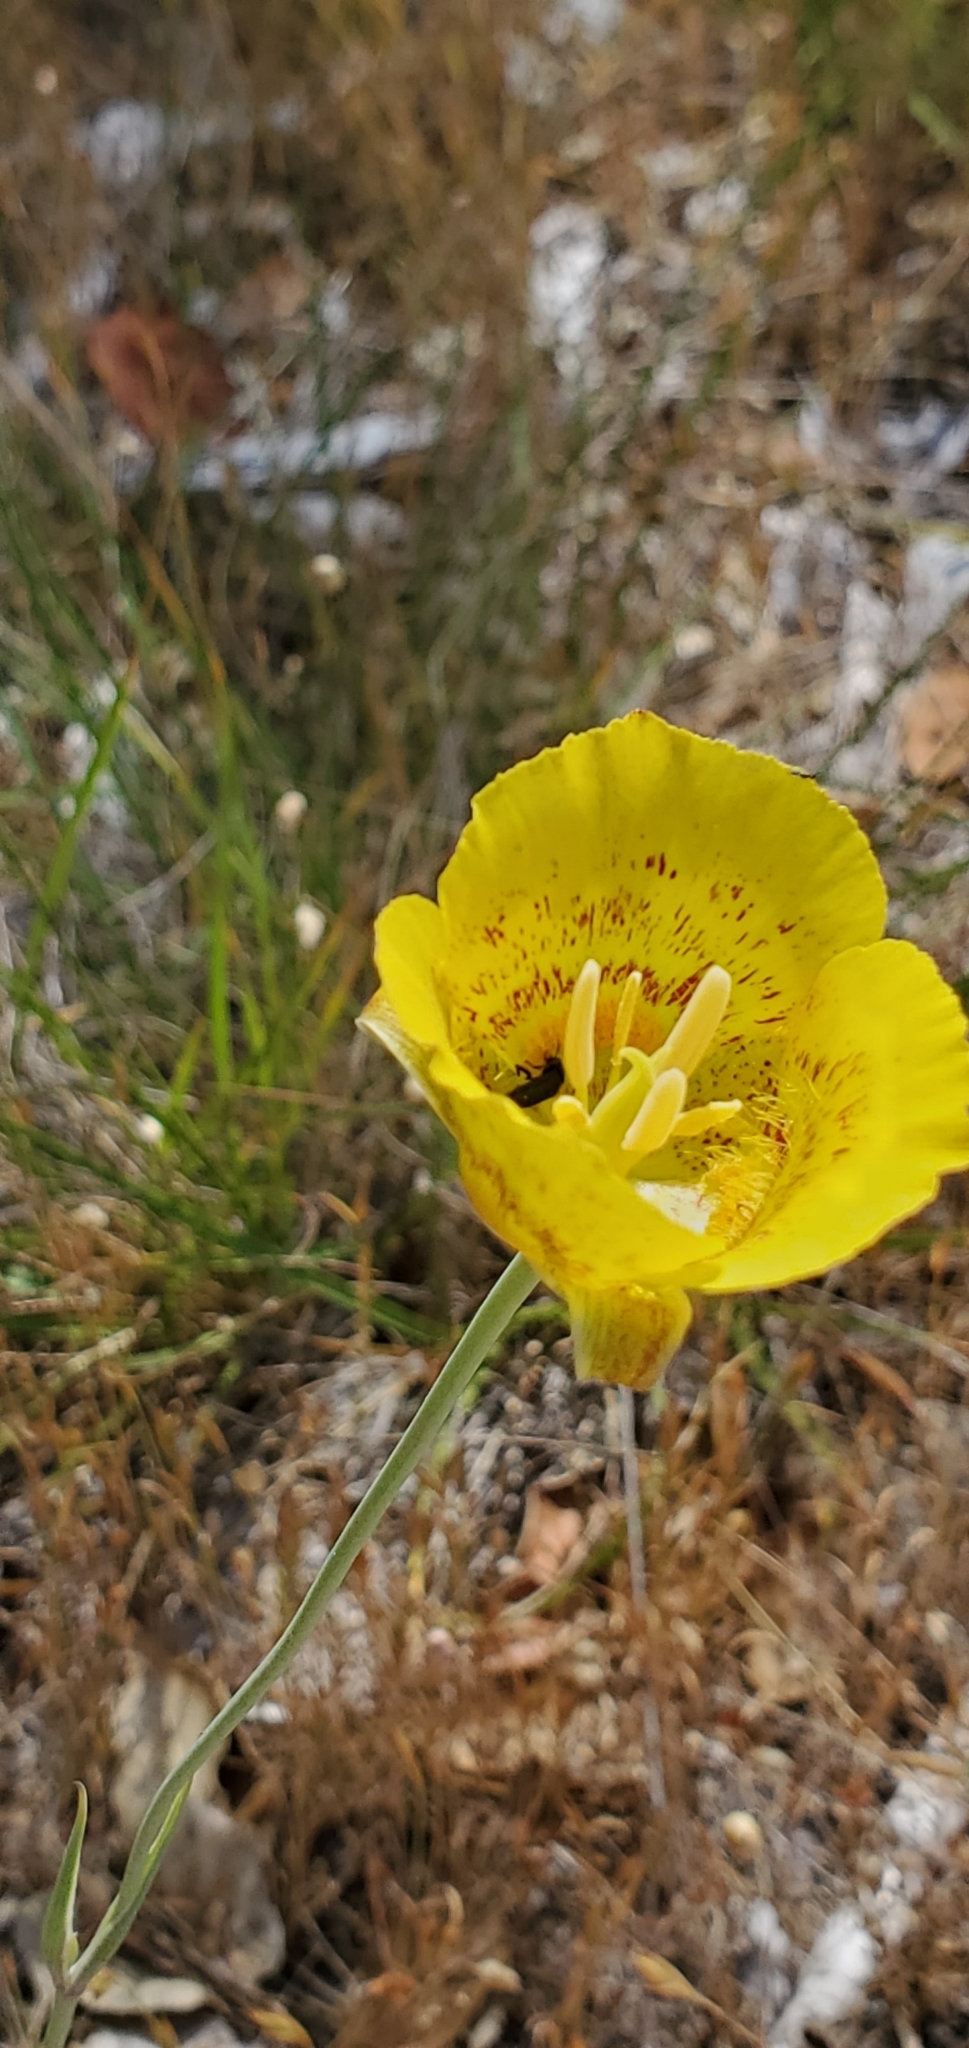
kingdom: Plantae
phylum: Tracheophyta
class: Liliopsida
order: Liliales
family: Liliaceae
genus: Calochortus
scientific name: Calochortus luteus
